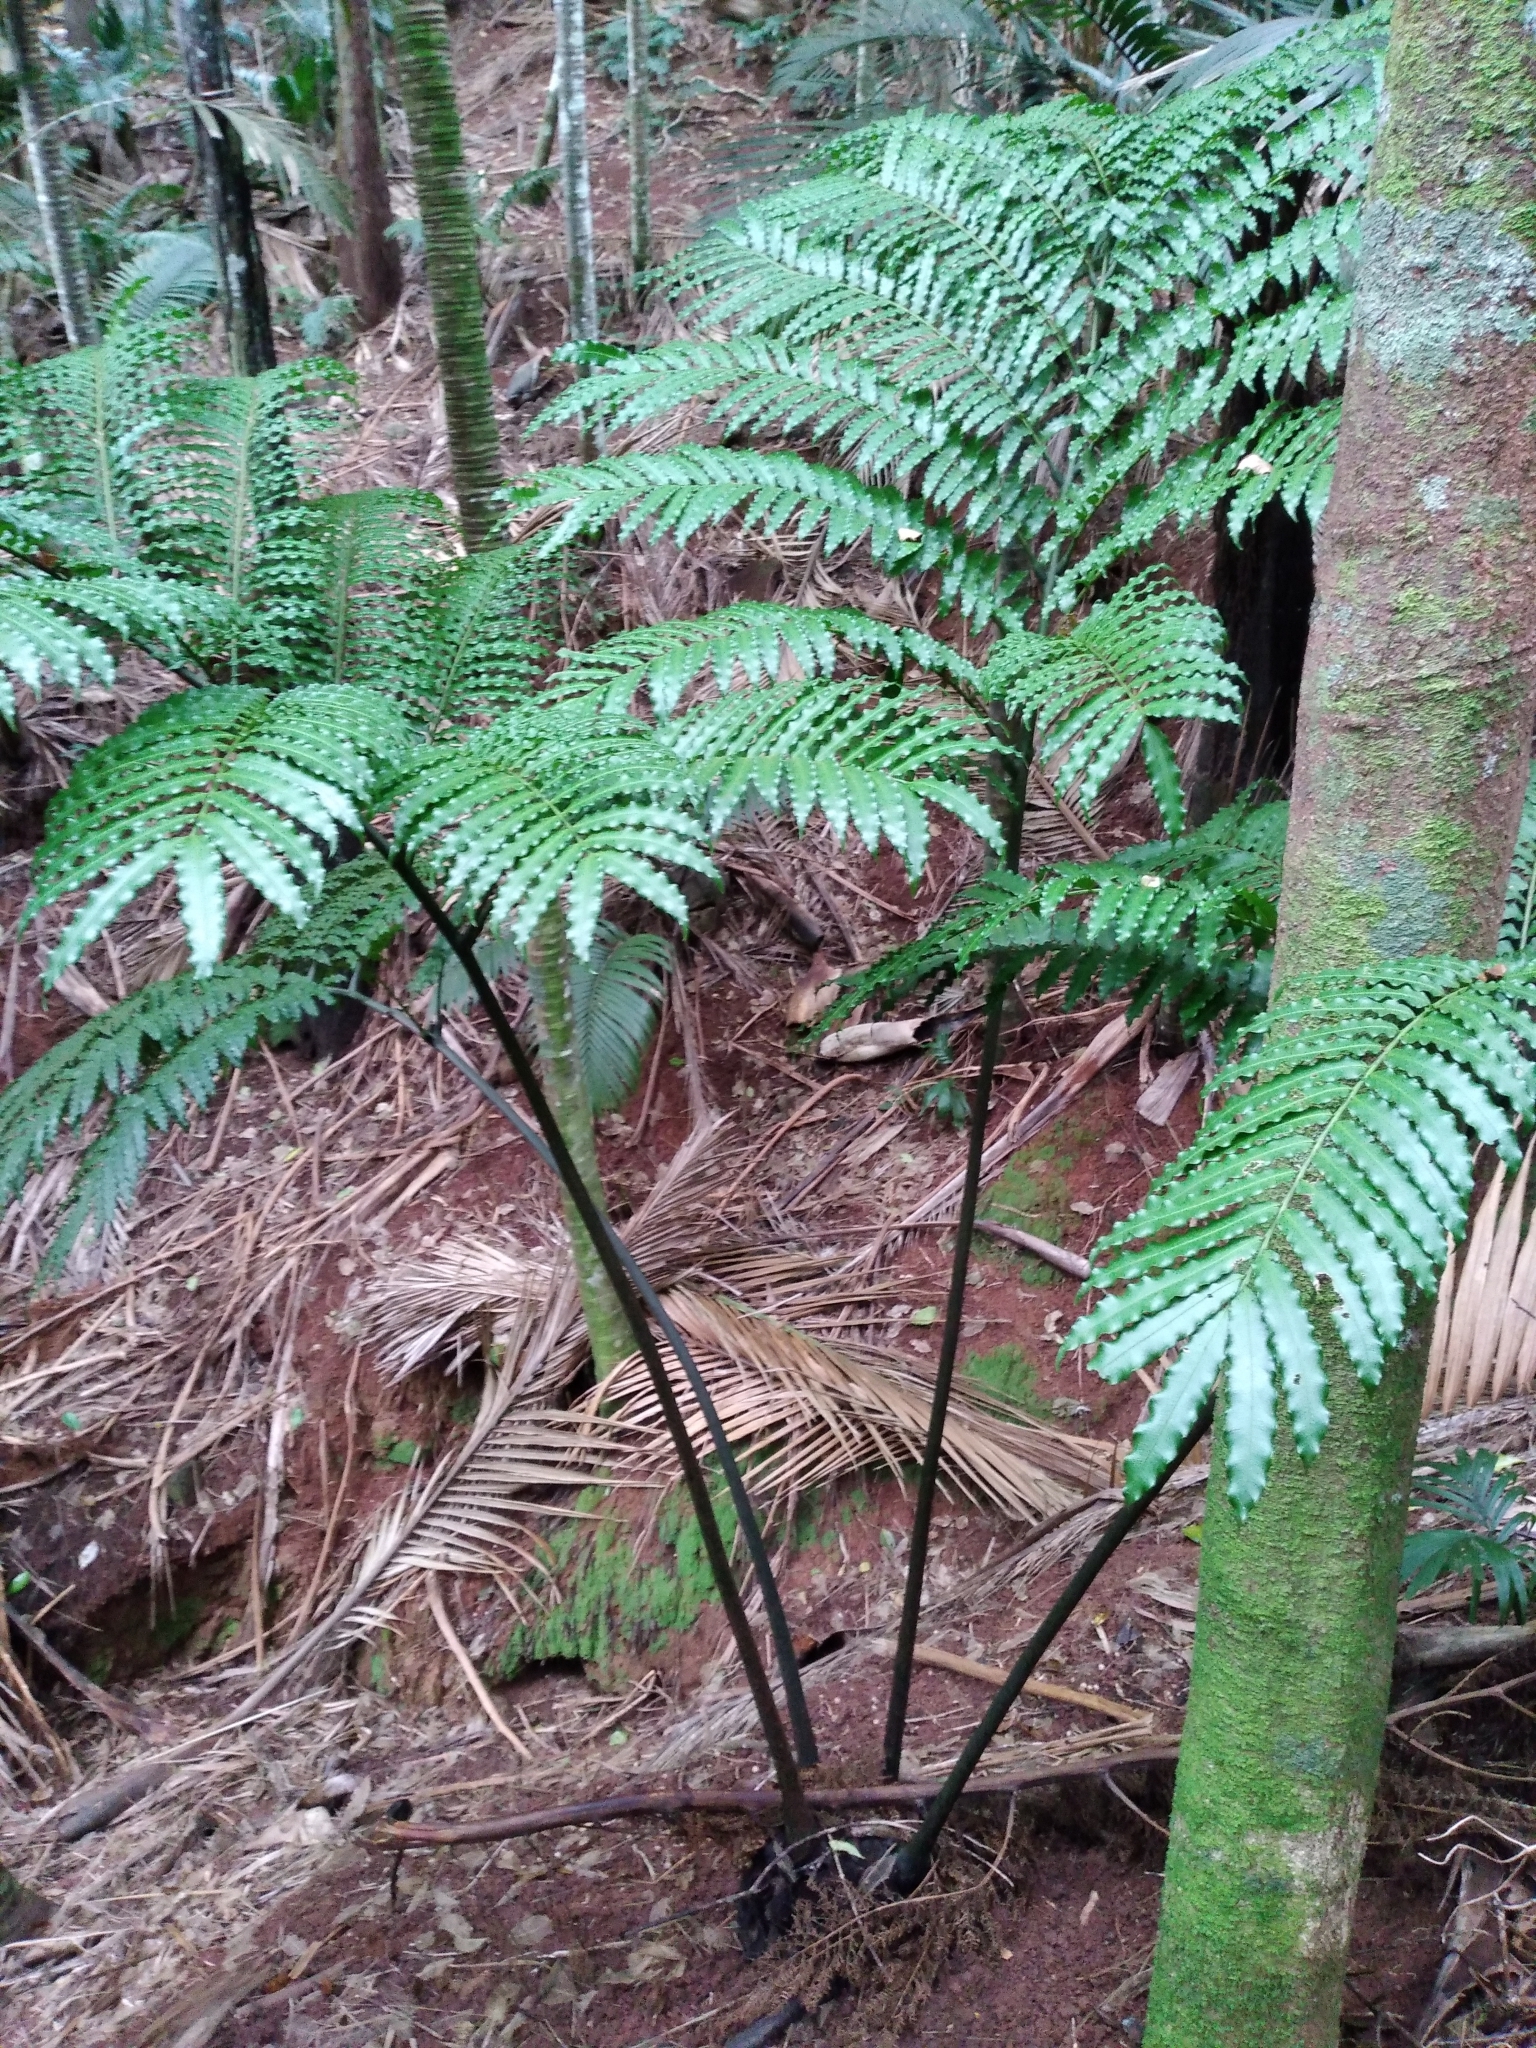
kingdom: Plantae
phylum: Tracheophyta
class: Polypodiopsida
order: Marattiales
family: Marattiaceae
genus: Ptisana
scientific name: Ptisana salicina
